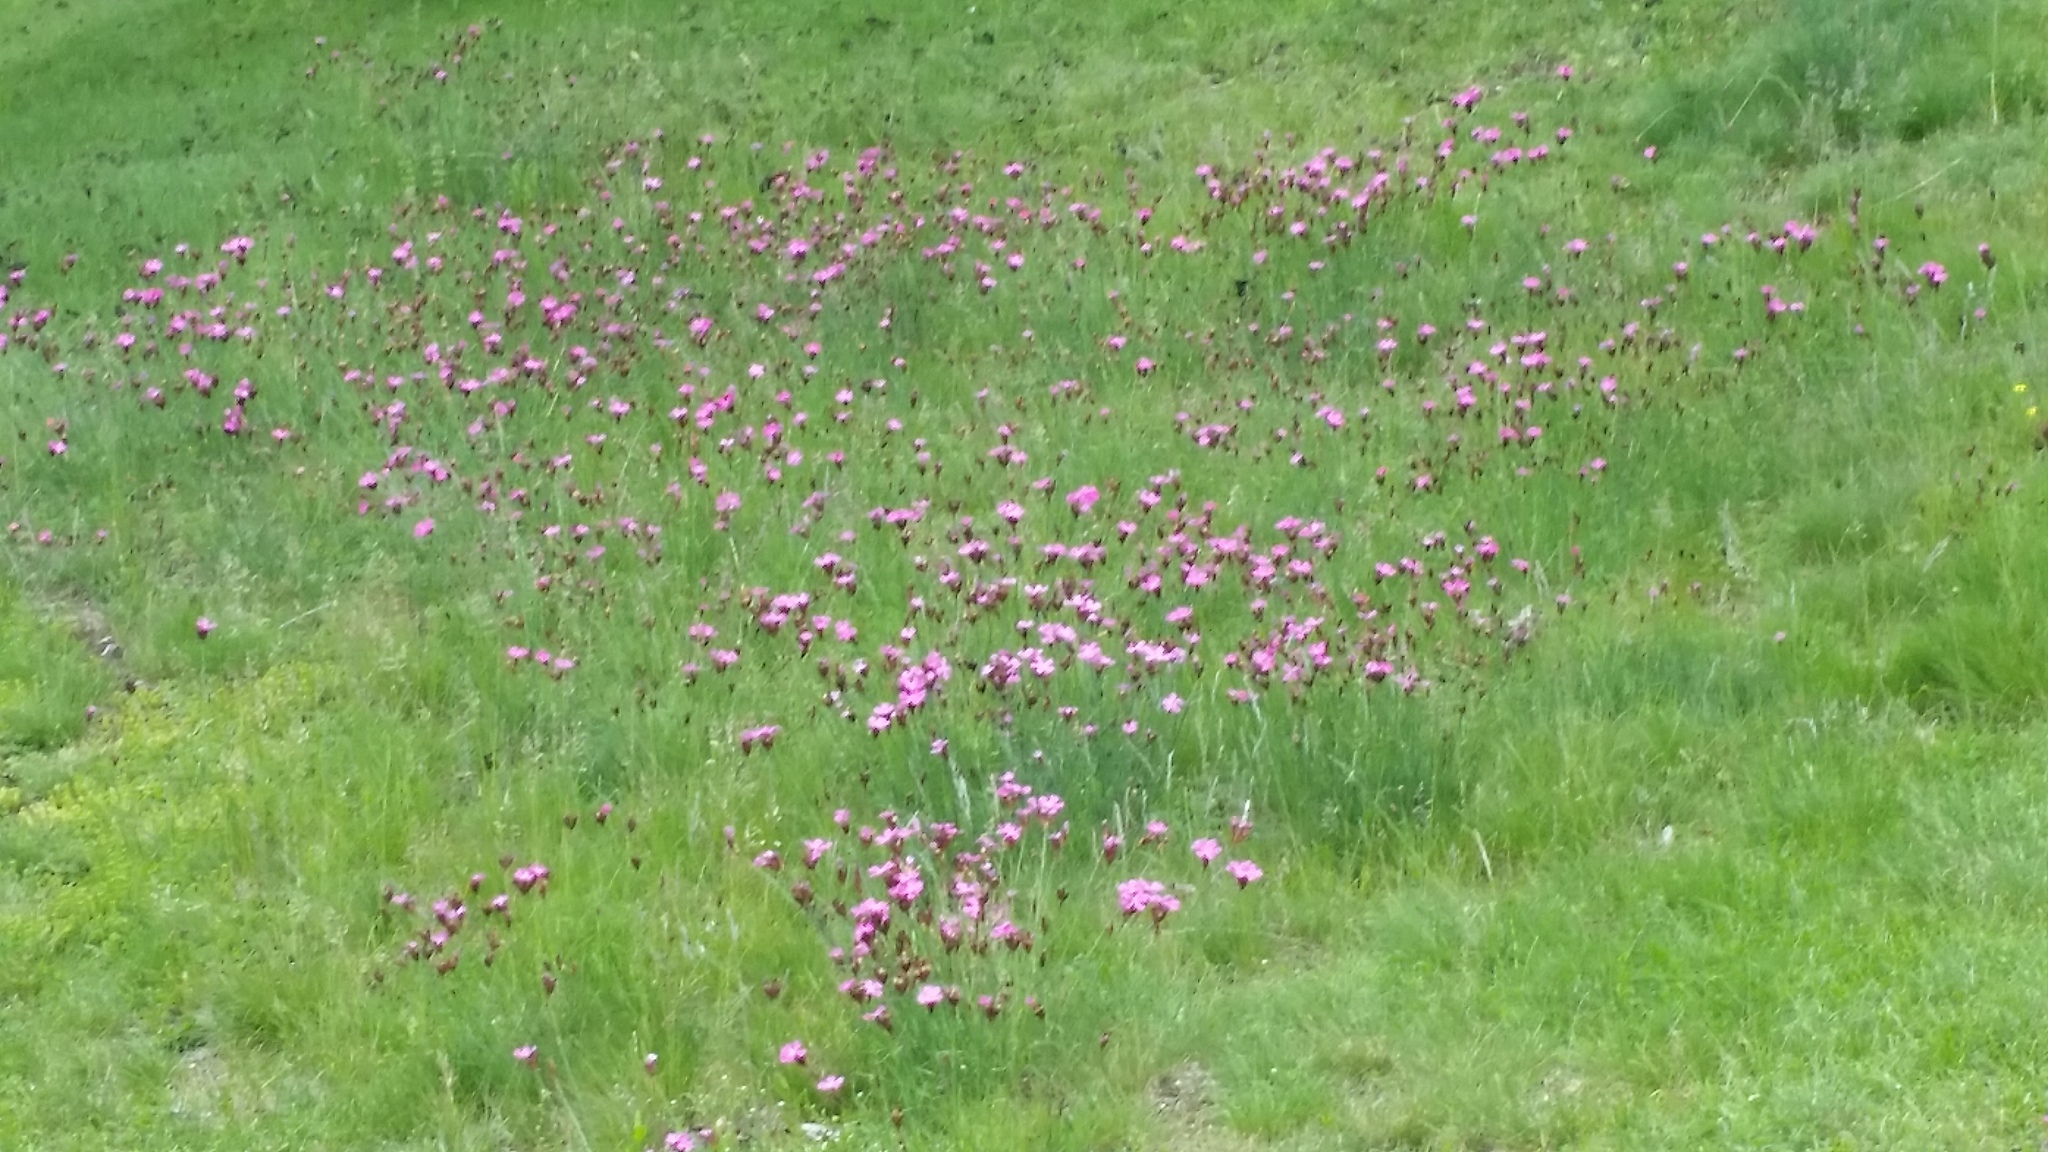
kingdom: Plantae
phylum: Tracheophyta
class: Magnoliopsida
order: Caryophyllales
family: Caryophyllaceae
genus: Dianthus
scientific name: Dianthus carthusianorum
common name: Carthusian pink
